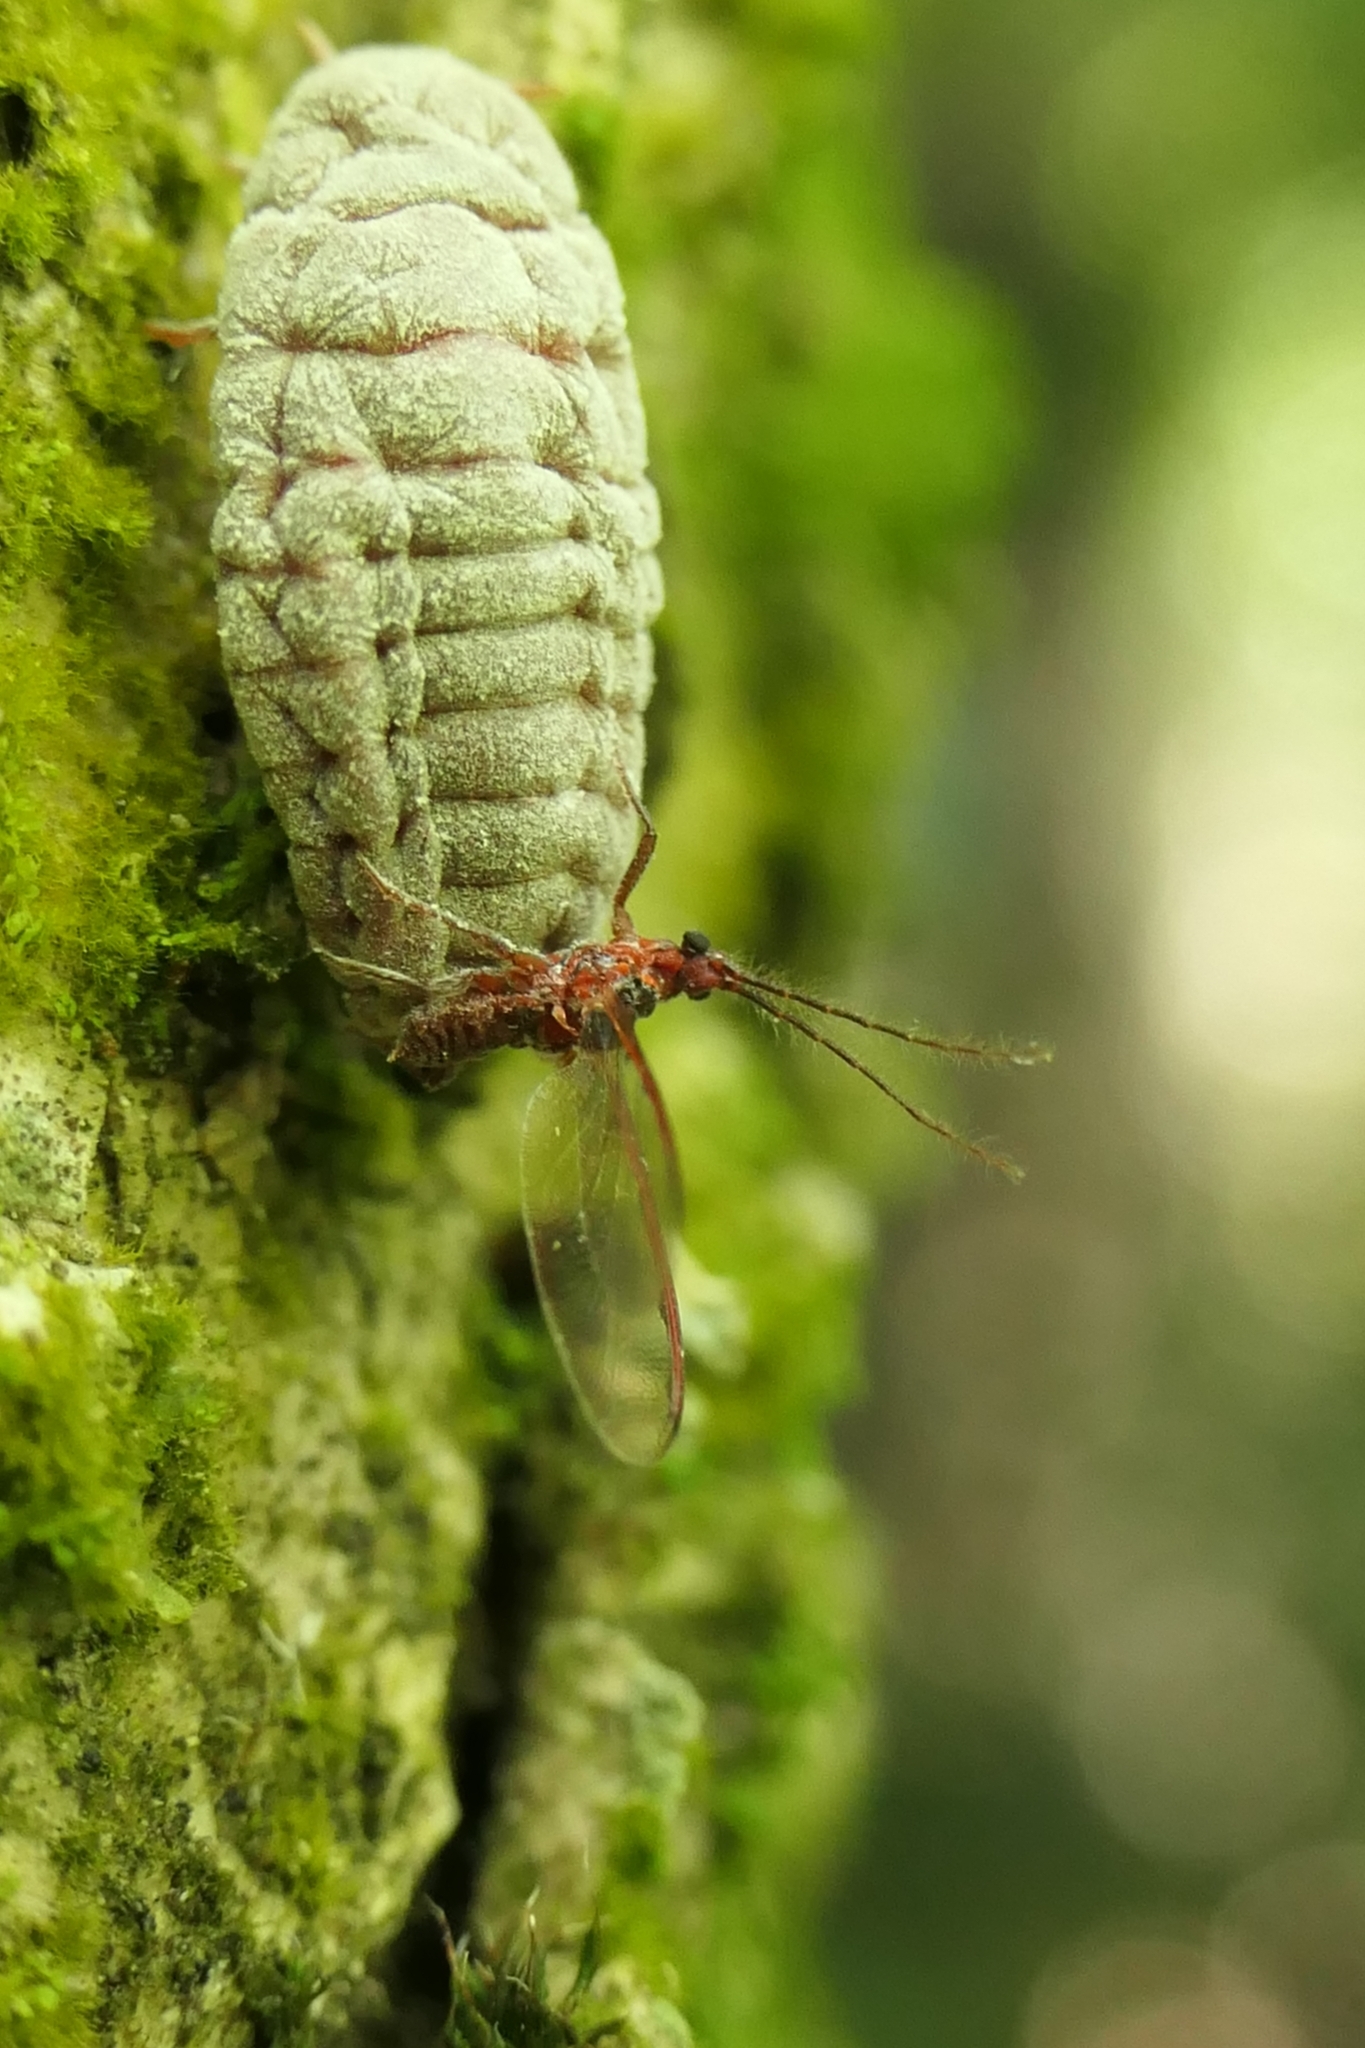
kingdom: Animalia
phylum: Arthropoda
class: Insecta
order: Hemiptera
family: Margarodidae
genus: Coelostomidia
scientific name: Coelostomidia zealandica
